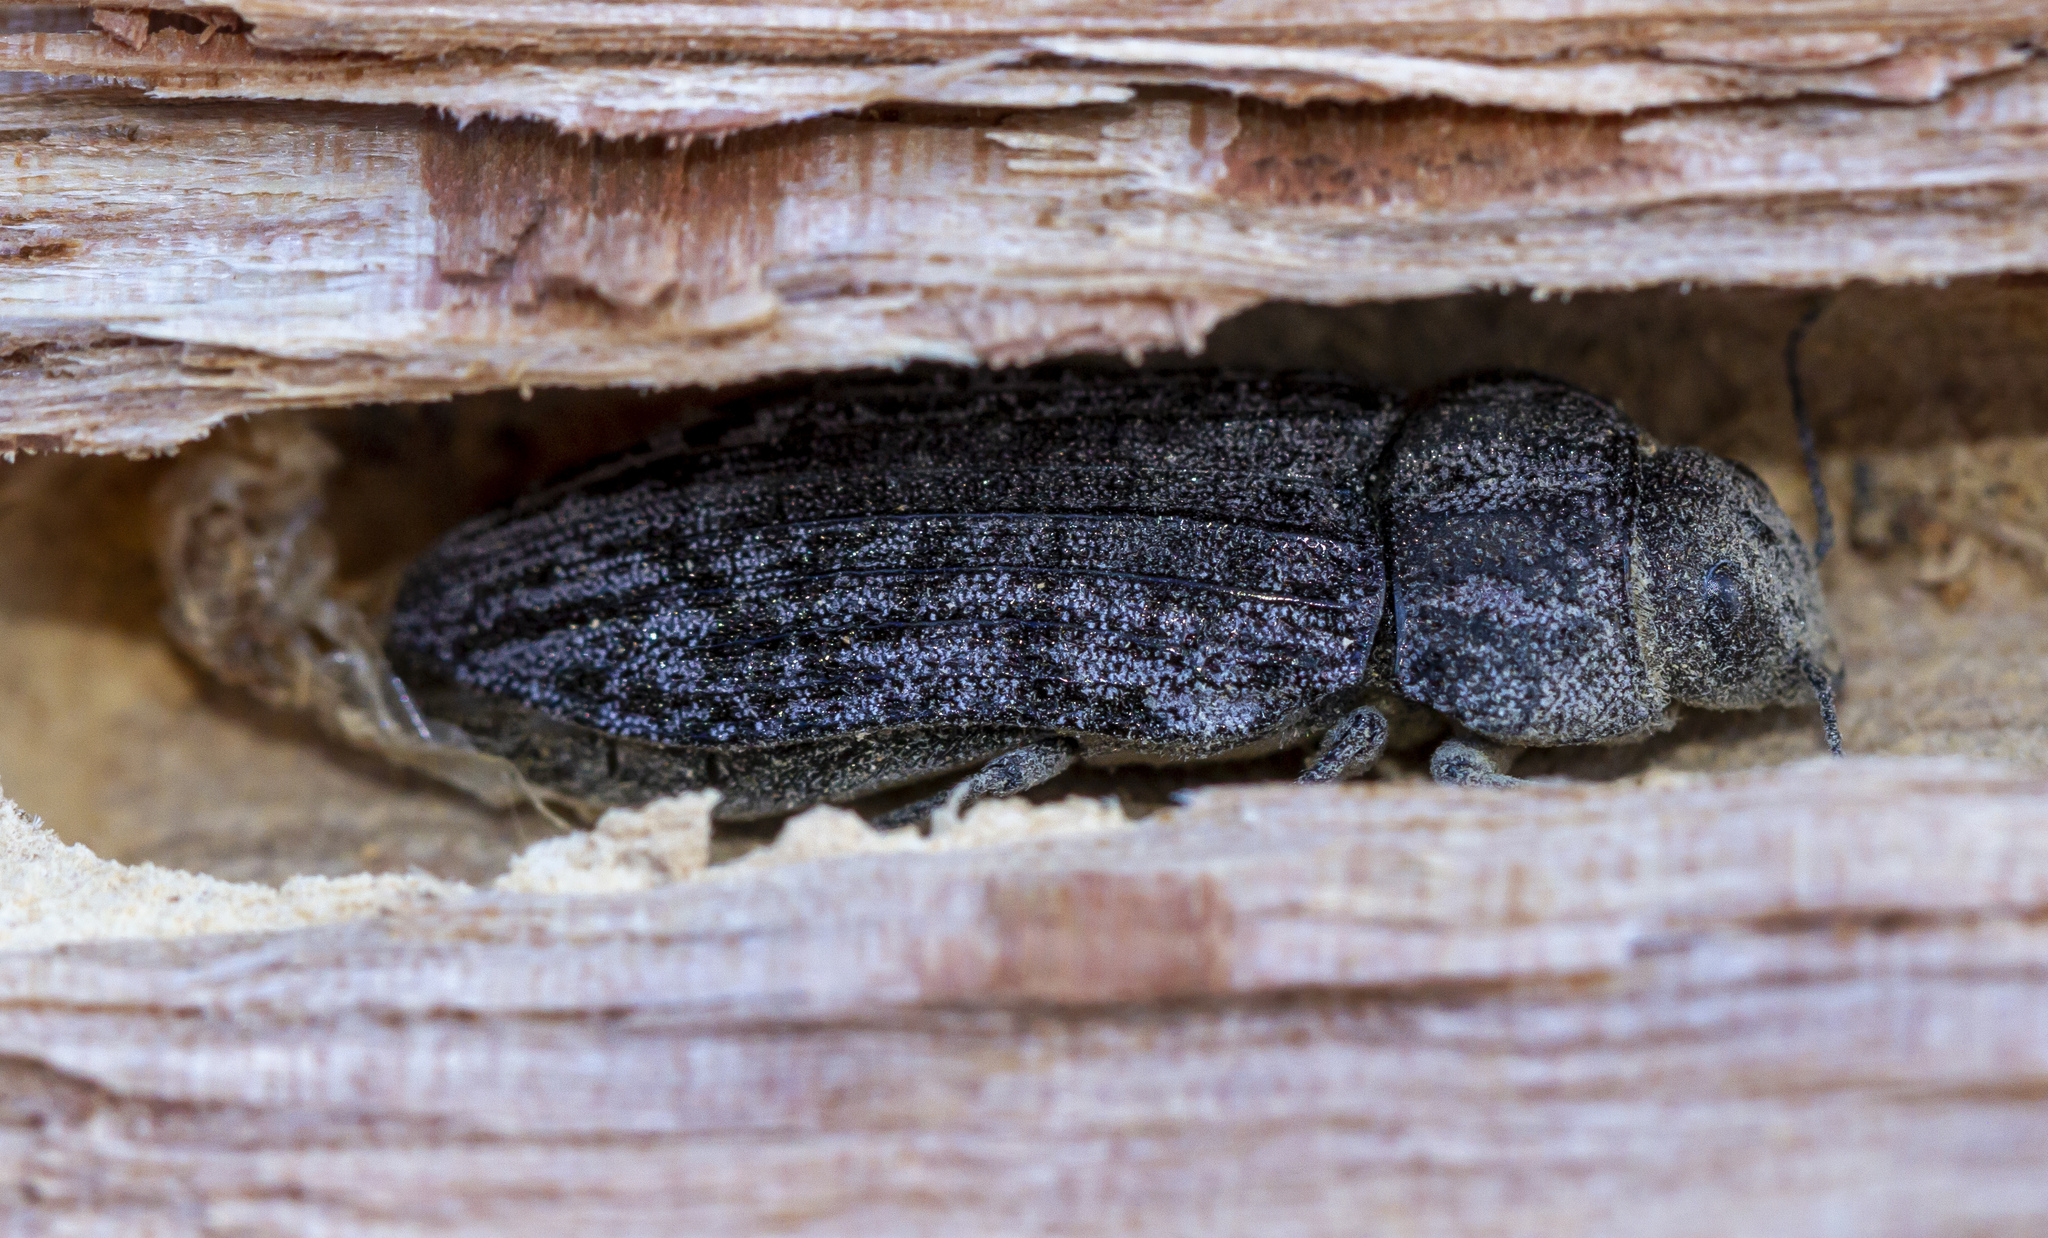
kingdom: Animalia
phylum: Arthropoda
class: Insecta
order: Coleoptera
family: Buprestidae
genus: Polycesta
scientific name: Polycesta californica
